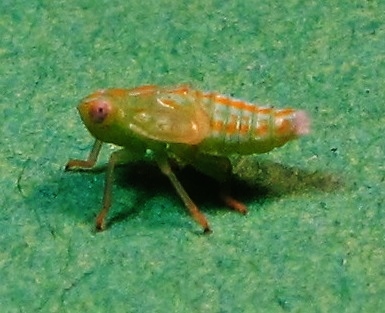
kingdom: Animalia
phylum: Arthropoda
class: Insecta
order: Hemiptera
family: Issidae
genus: Thionia
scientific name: Thionia quinquata
